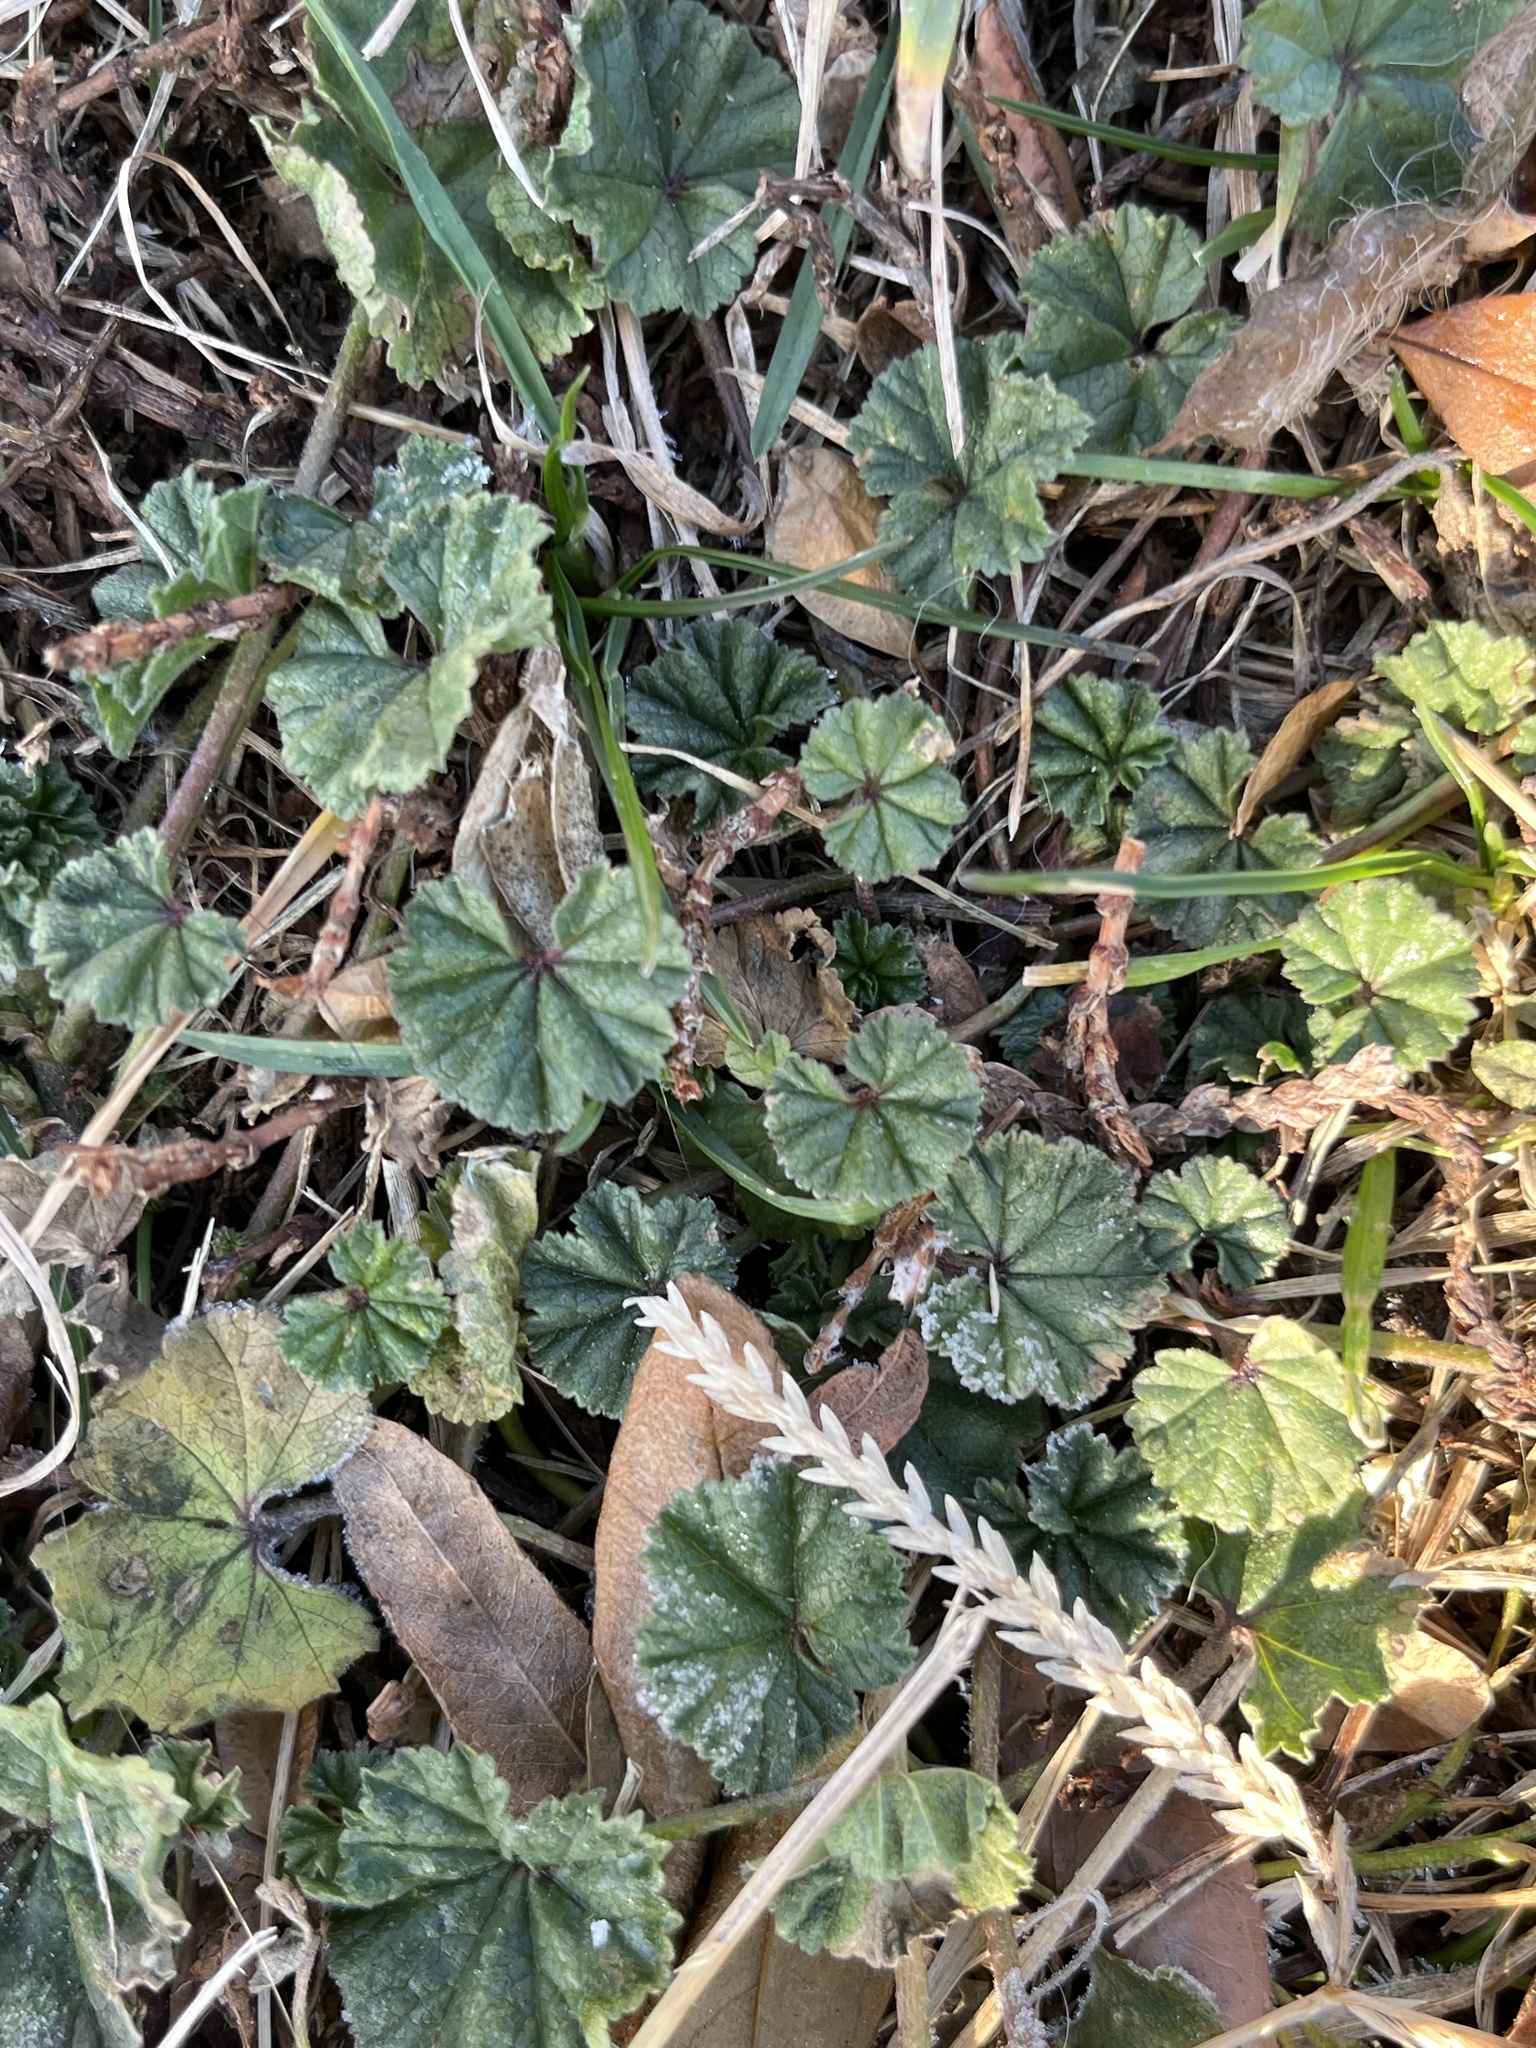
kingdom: Plantae
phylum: Tracheophyta
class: Magnoliopsida
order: Malvales
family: Malvaceae
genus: Malva
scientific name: Malva neglecta
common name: Common mallow
